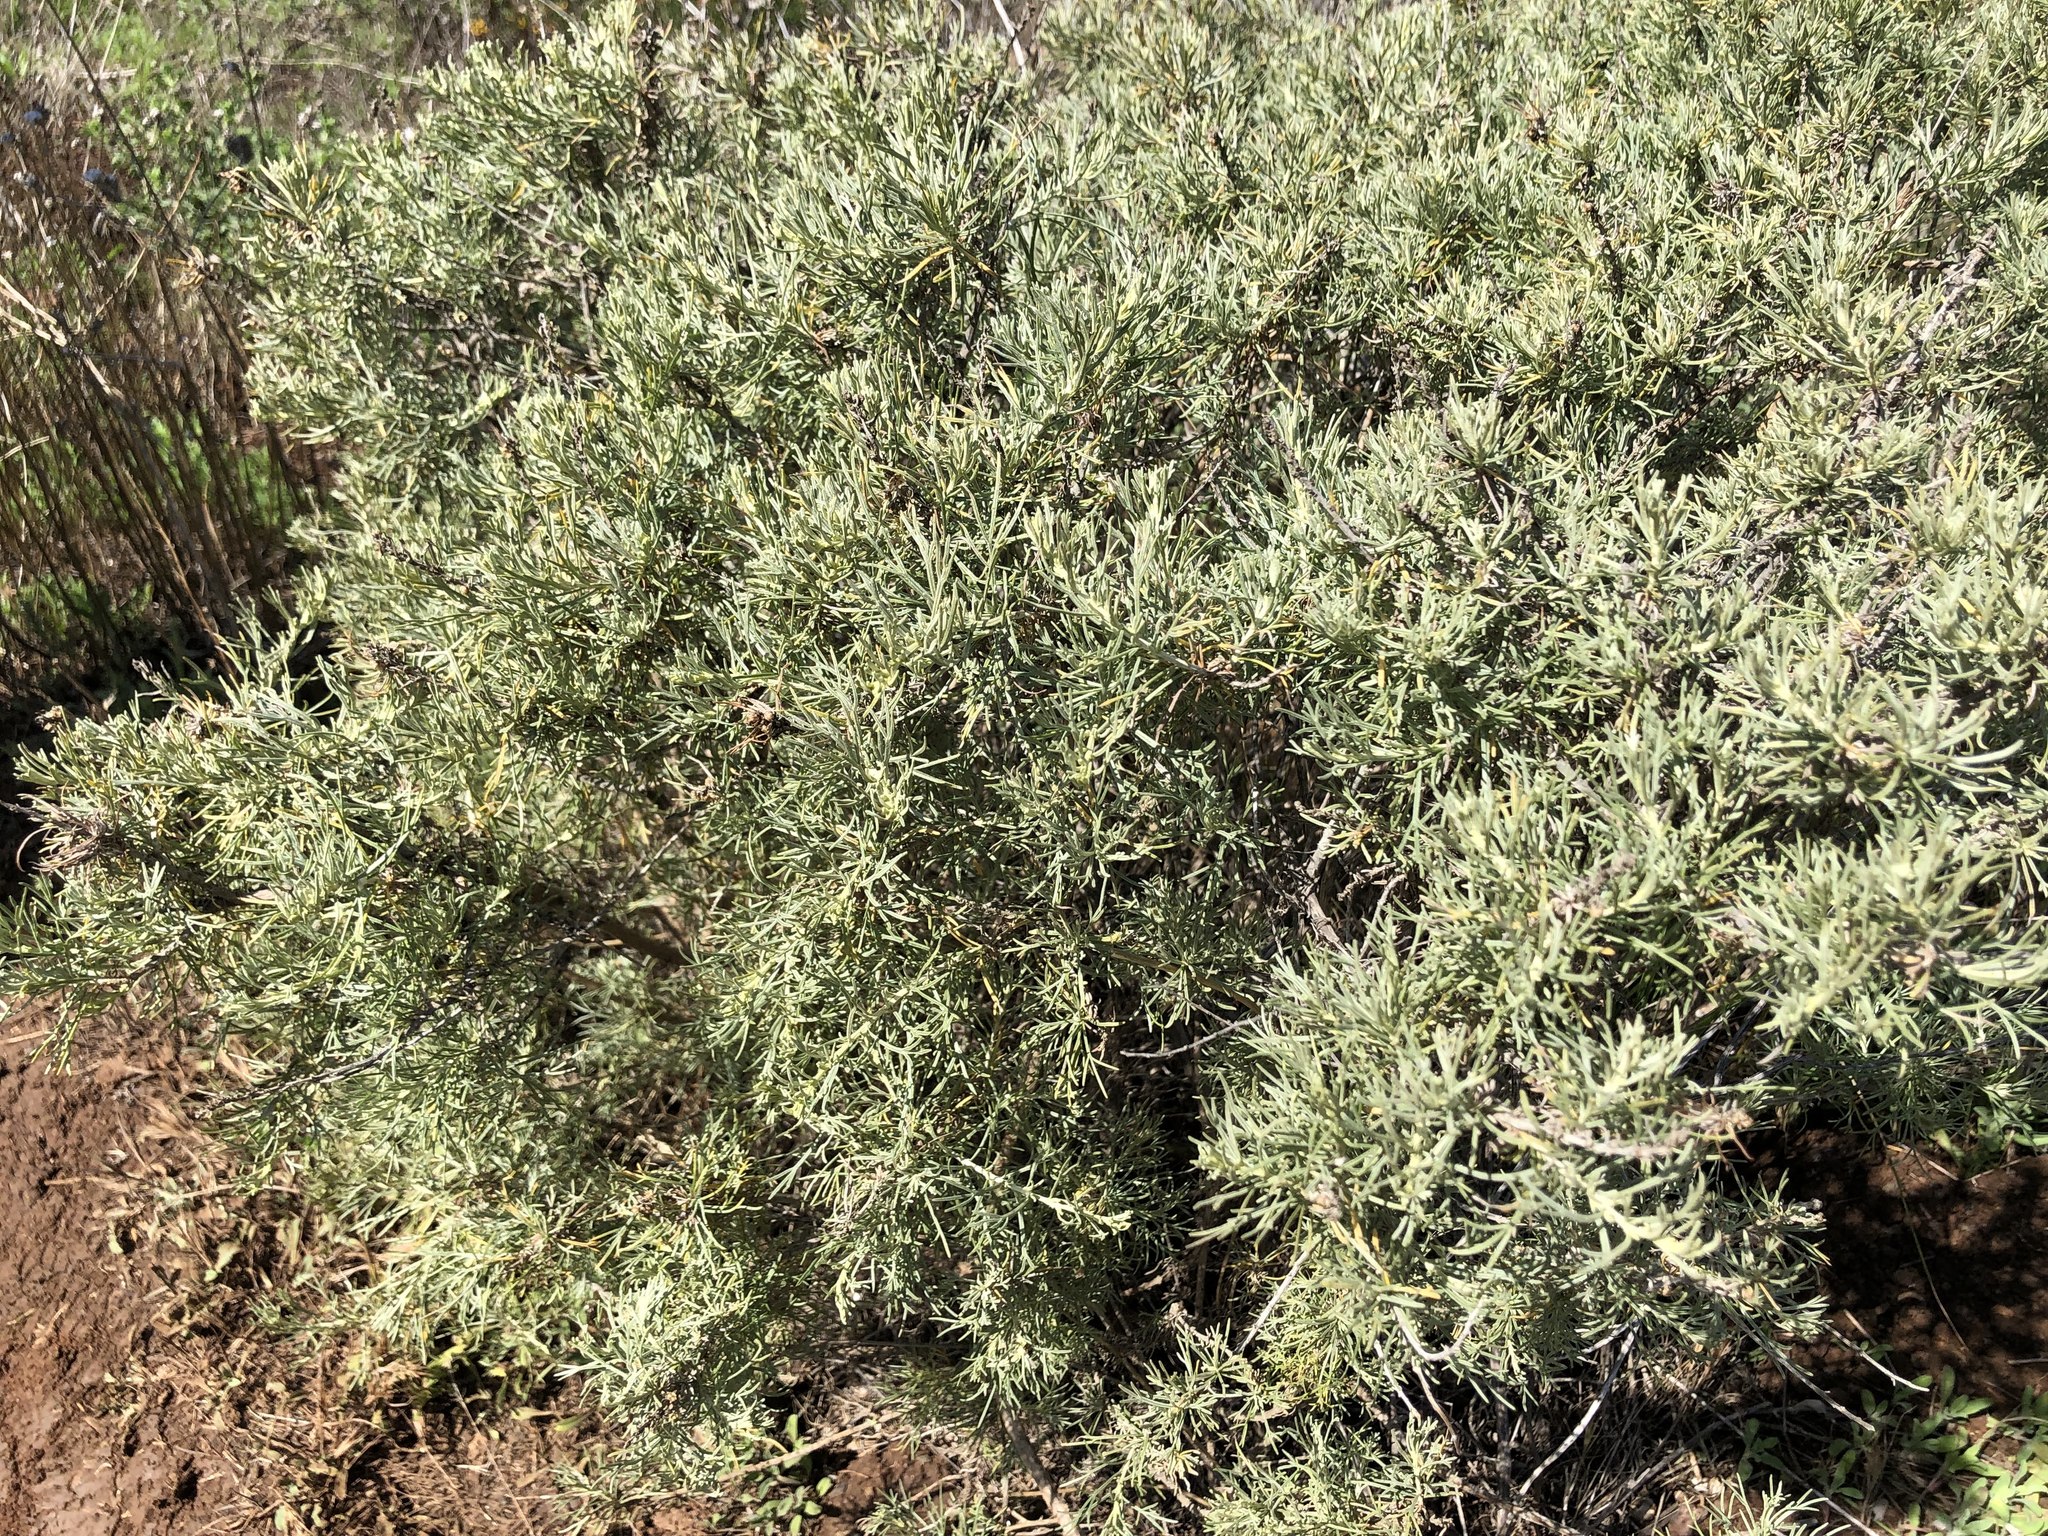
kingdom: Plantae
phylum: Tracheophyta
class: Magnoliopsida
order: Asterales
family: Asteraceae
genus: Artemisia
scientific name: Artemisia californica
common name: California sagebrush
